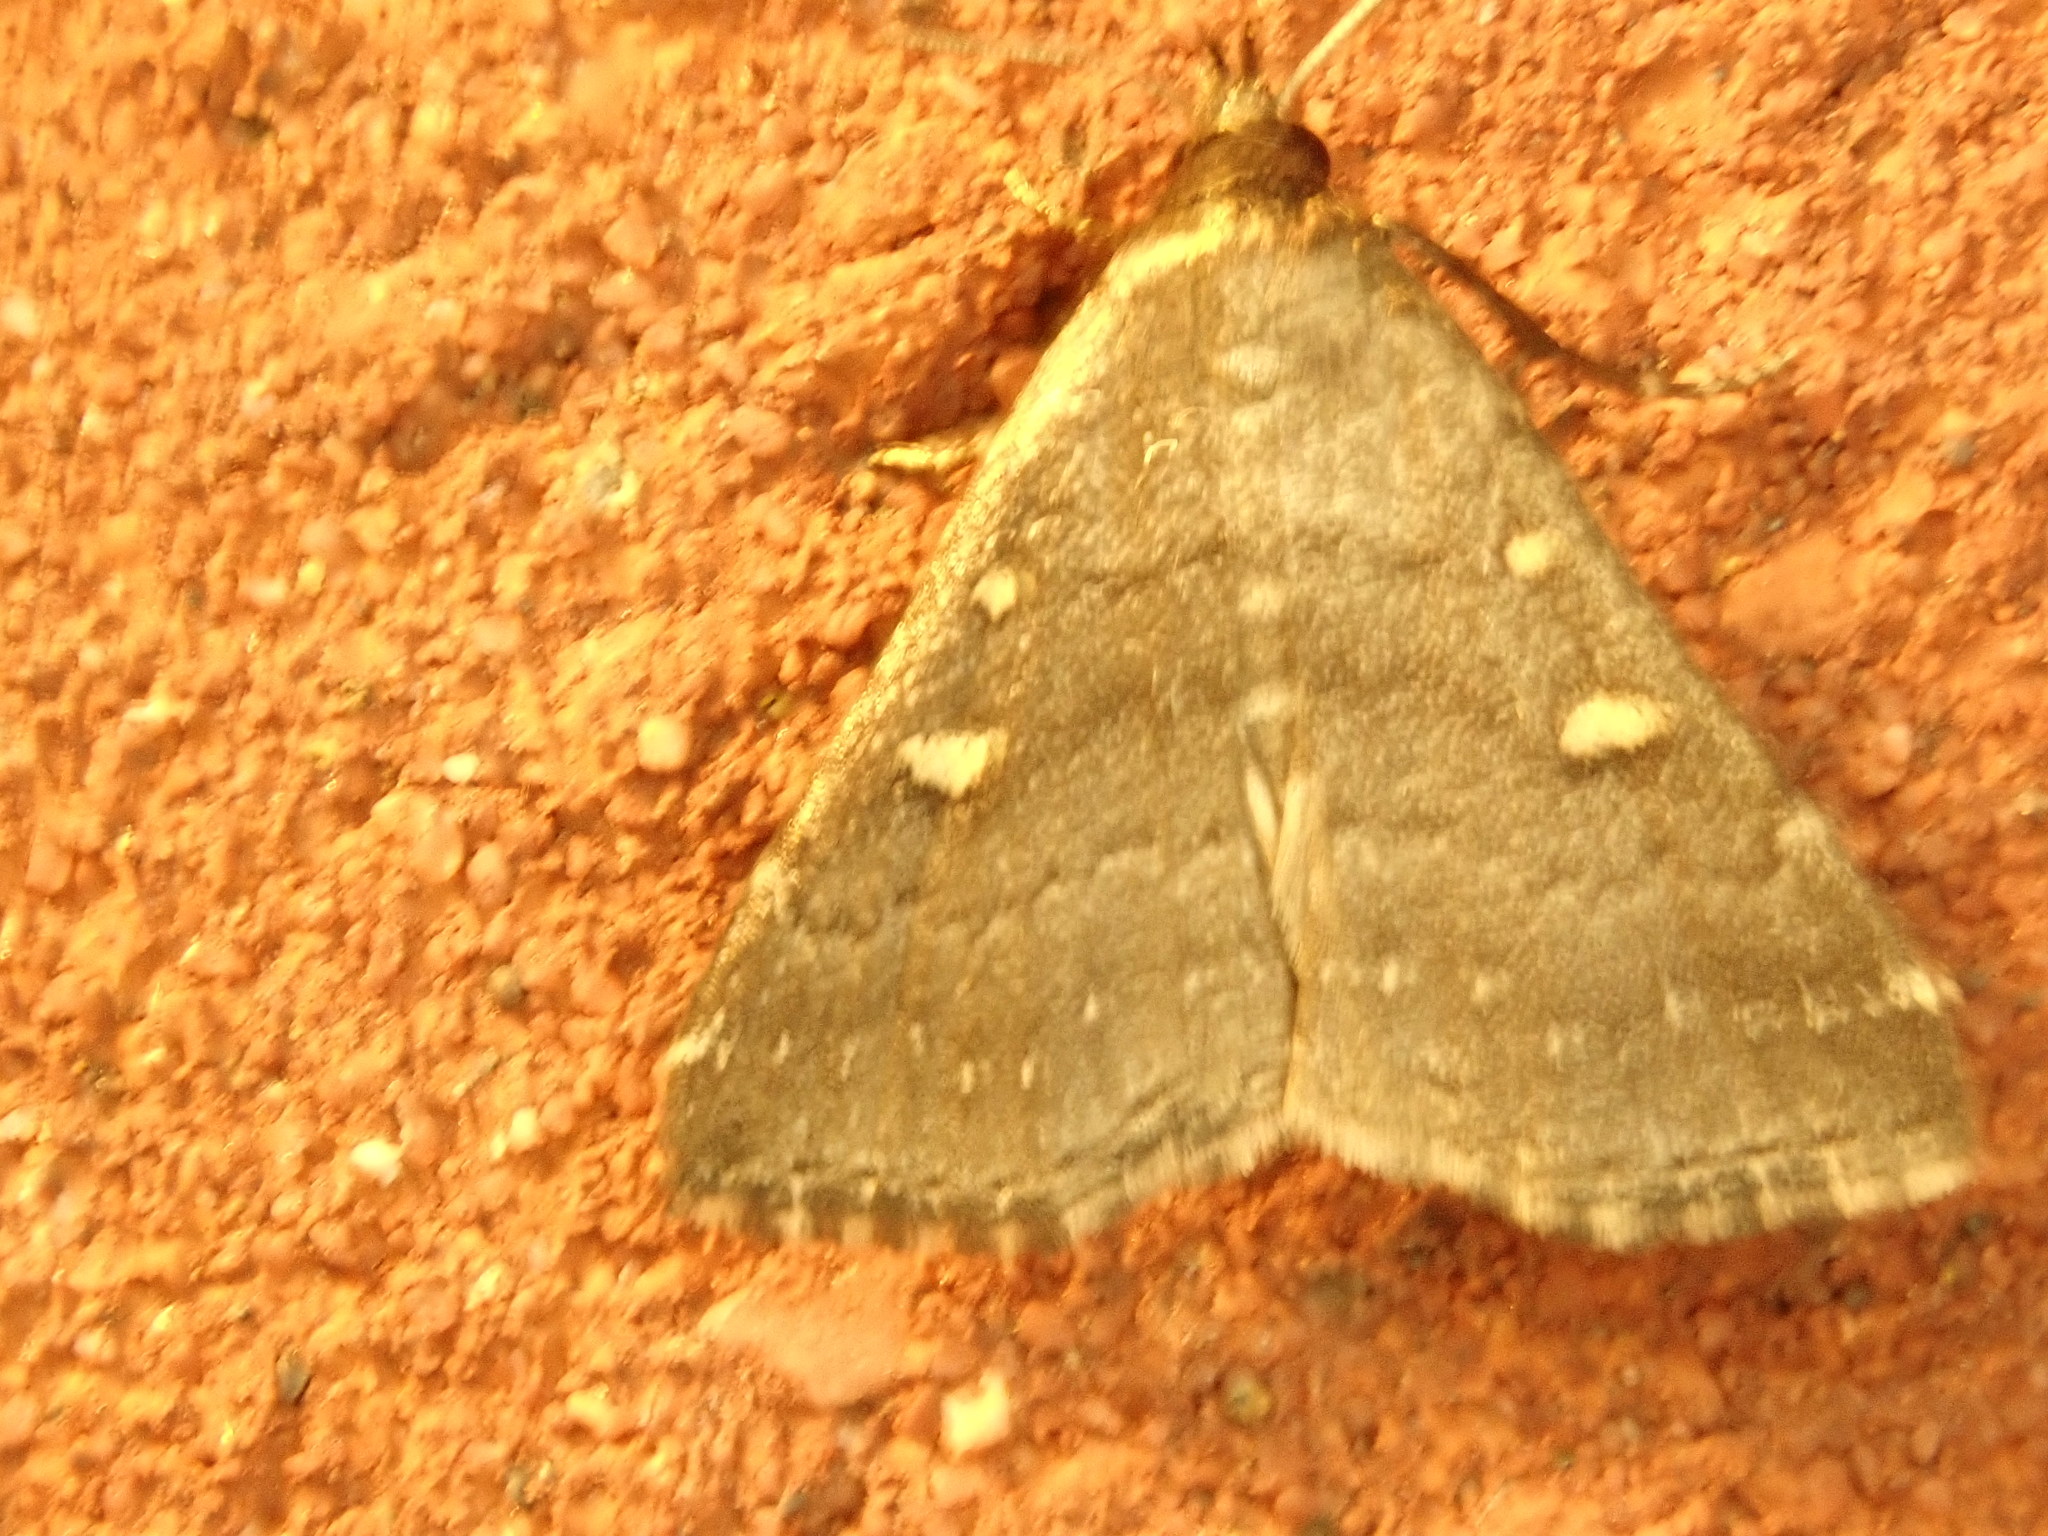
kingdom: Animalia
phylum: Arthropoda
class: Insecta
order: Lepidoptera
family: Erebidae
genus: Tetanolita
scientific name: Tetanolita mynesalis
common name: Smoky tetanolita moth
